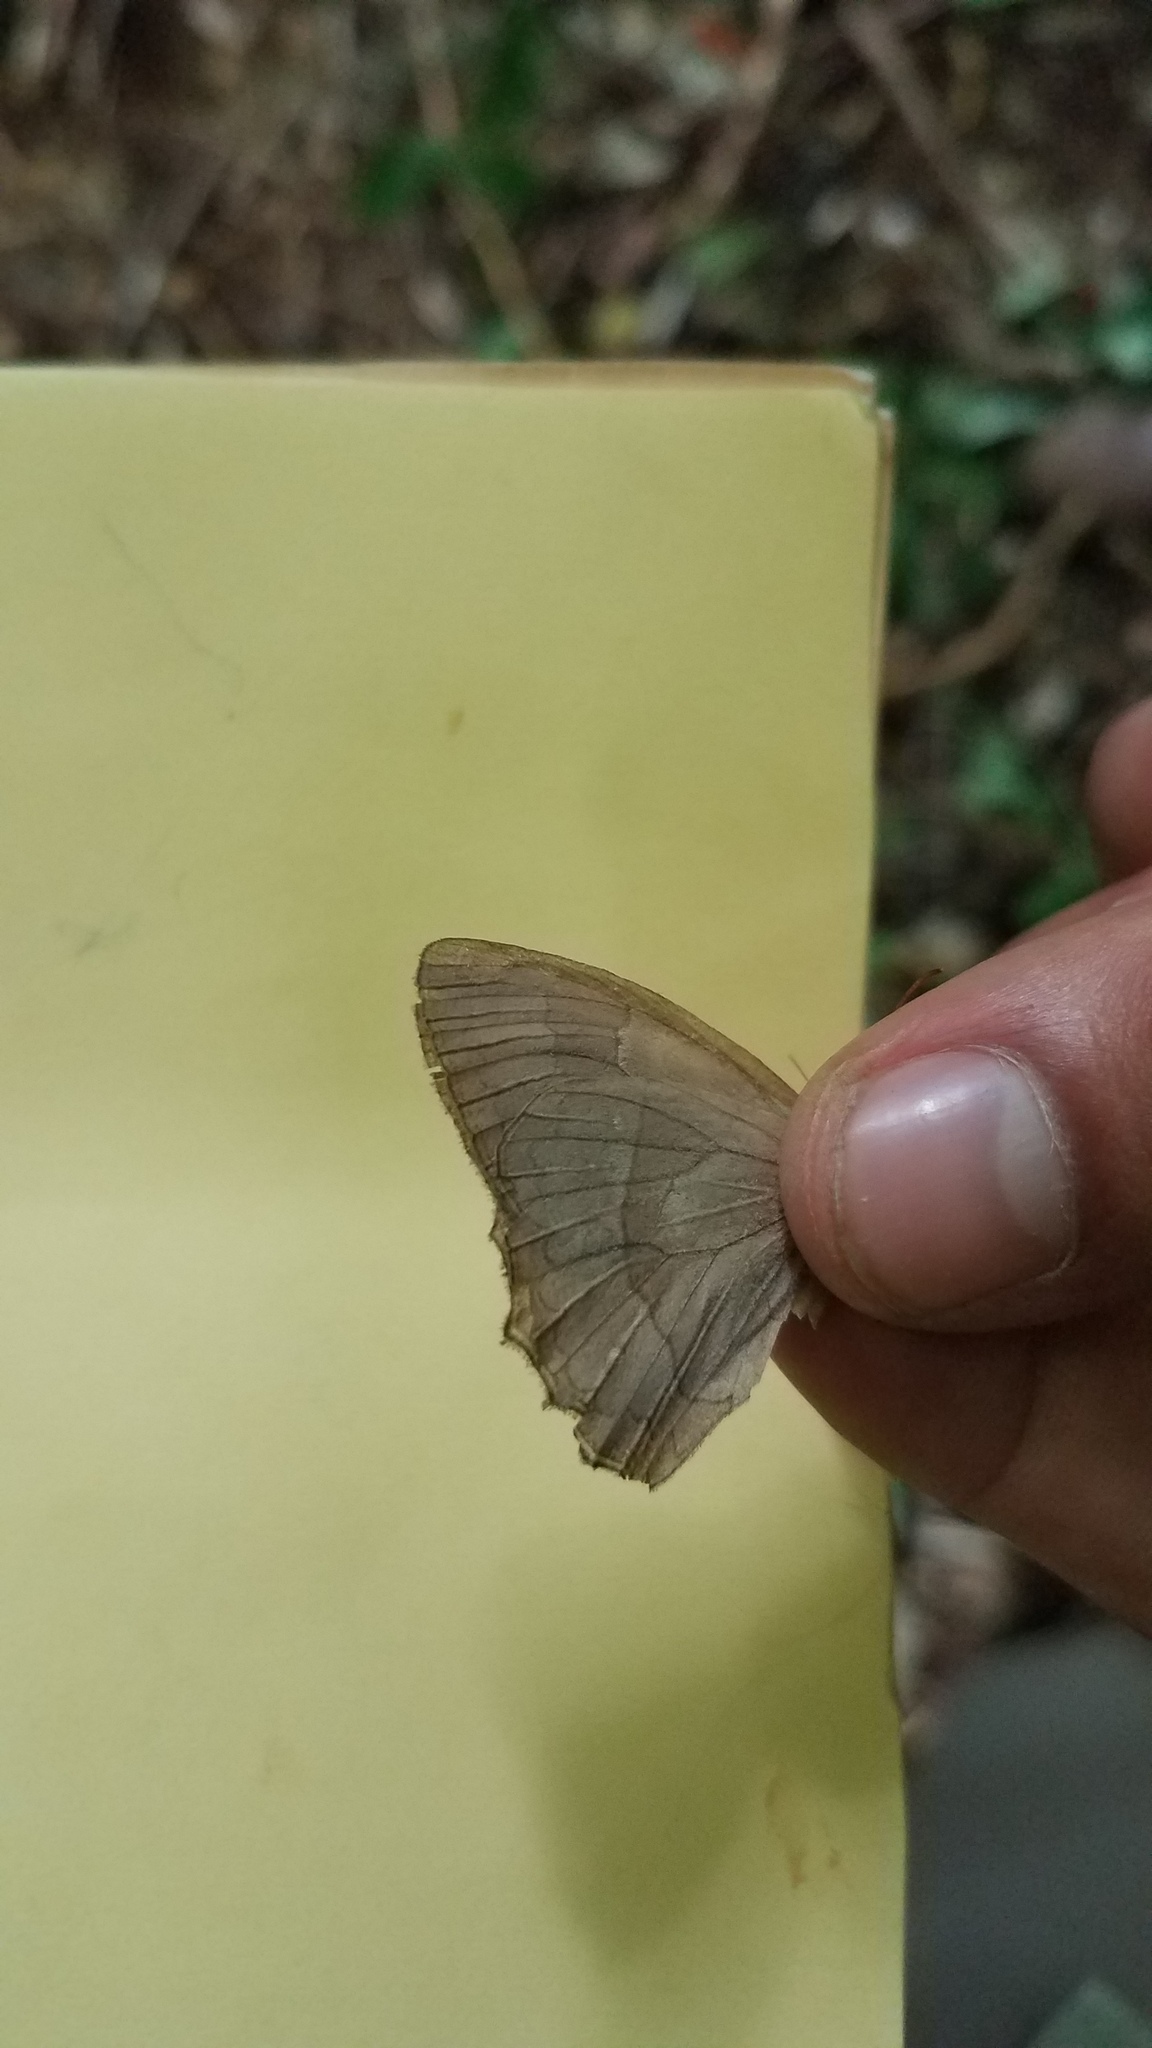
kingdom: Animalia
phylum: Arthropoda
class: Insecta
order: Lepidoptera
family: Nymphalidae
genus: Taygetina
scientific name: Taygetina kerea
